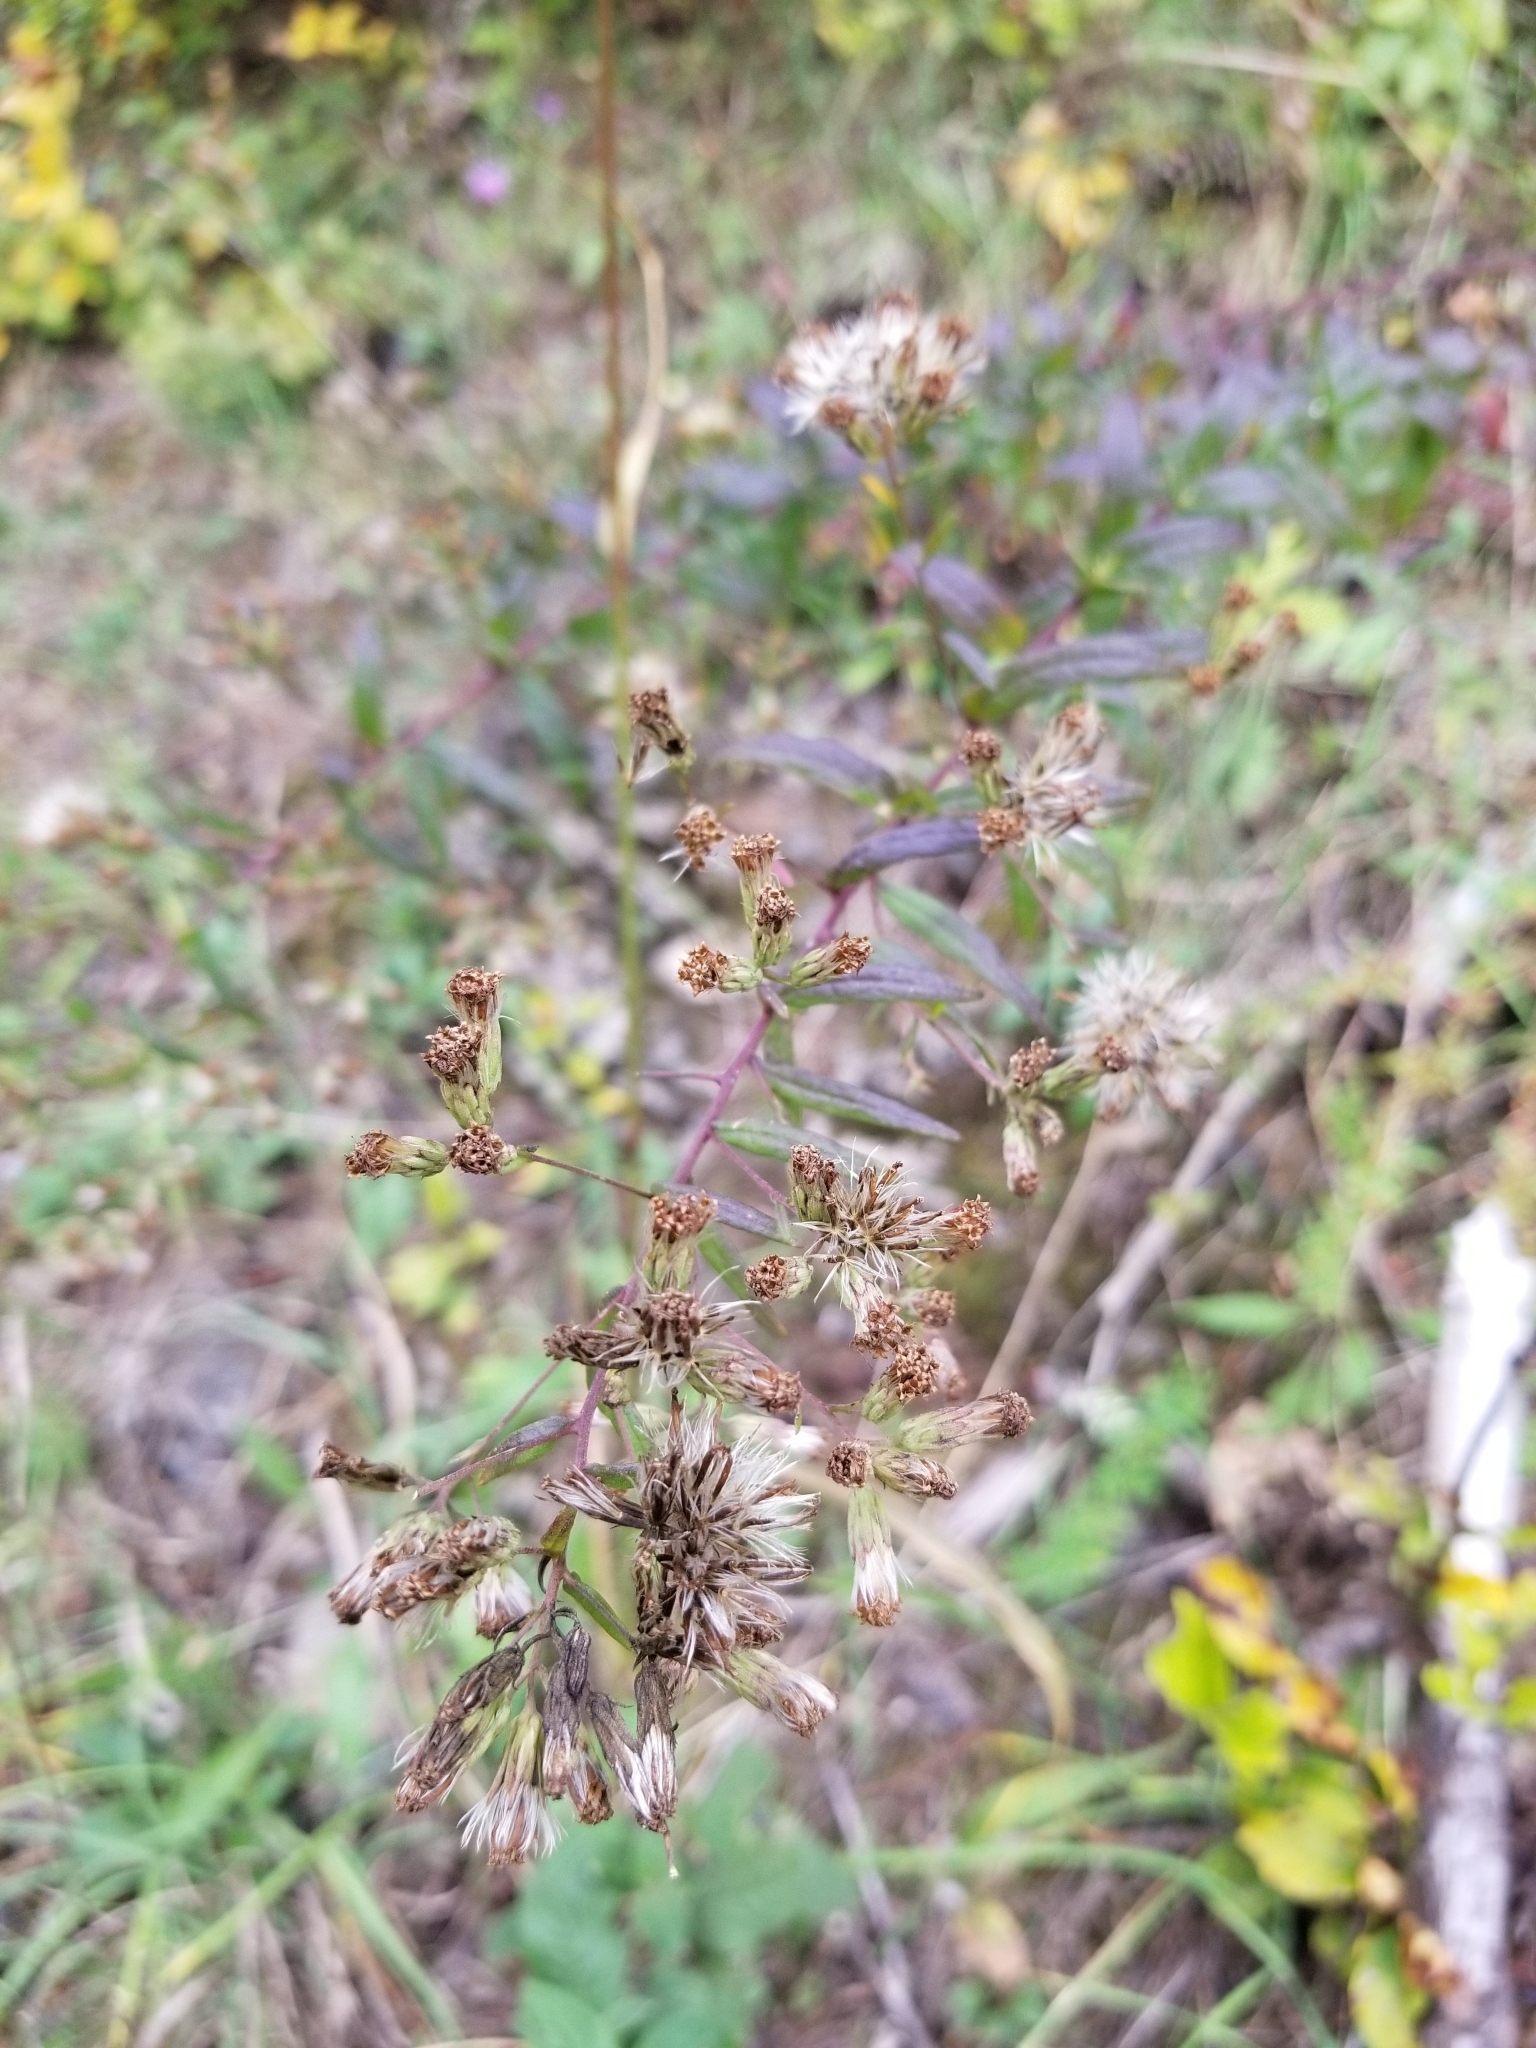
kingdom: Plantae
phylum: Tracheophyta
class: Magnoliopsida
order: Asterales
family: Asteraceae
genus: Brickellia
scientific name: Brickellia eupatorioides
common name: False boneset
